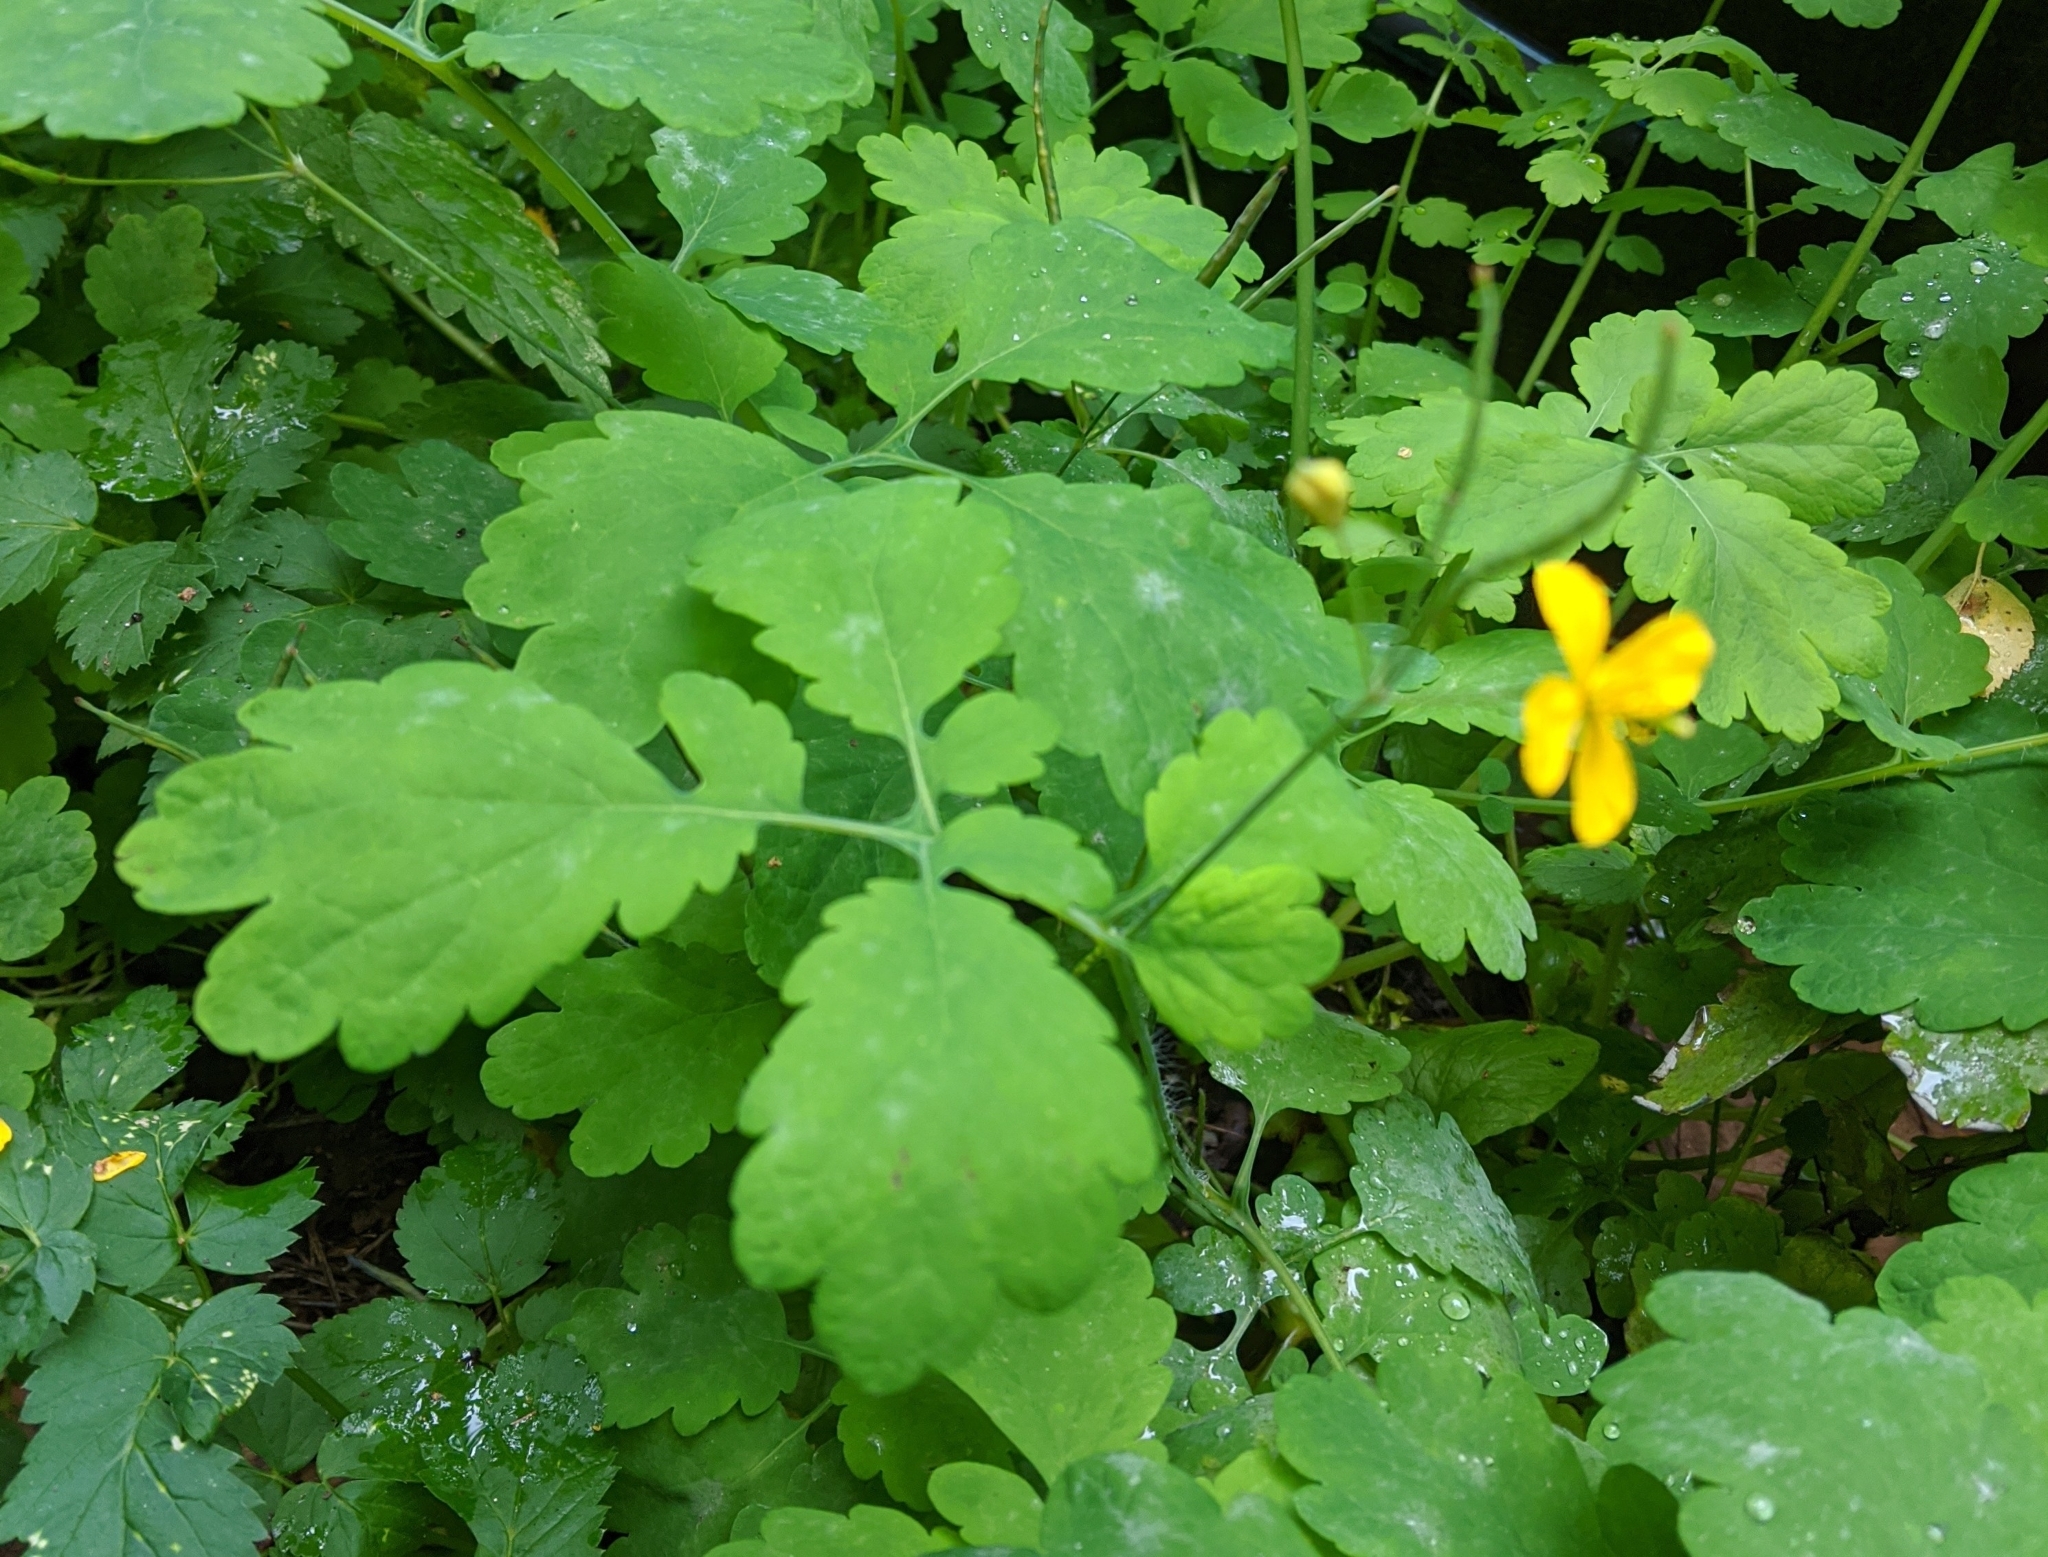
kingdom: Plantae
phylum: Tracheophyta
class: Magnoliopsida
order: Ranunculales
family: Papaveraceae
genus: Chelidonium
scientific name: Chelidonium majus
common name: Greater celandine
